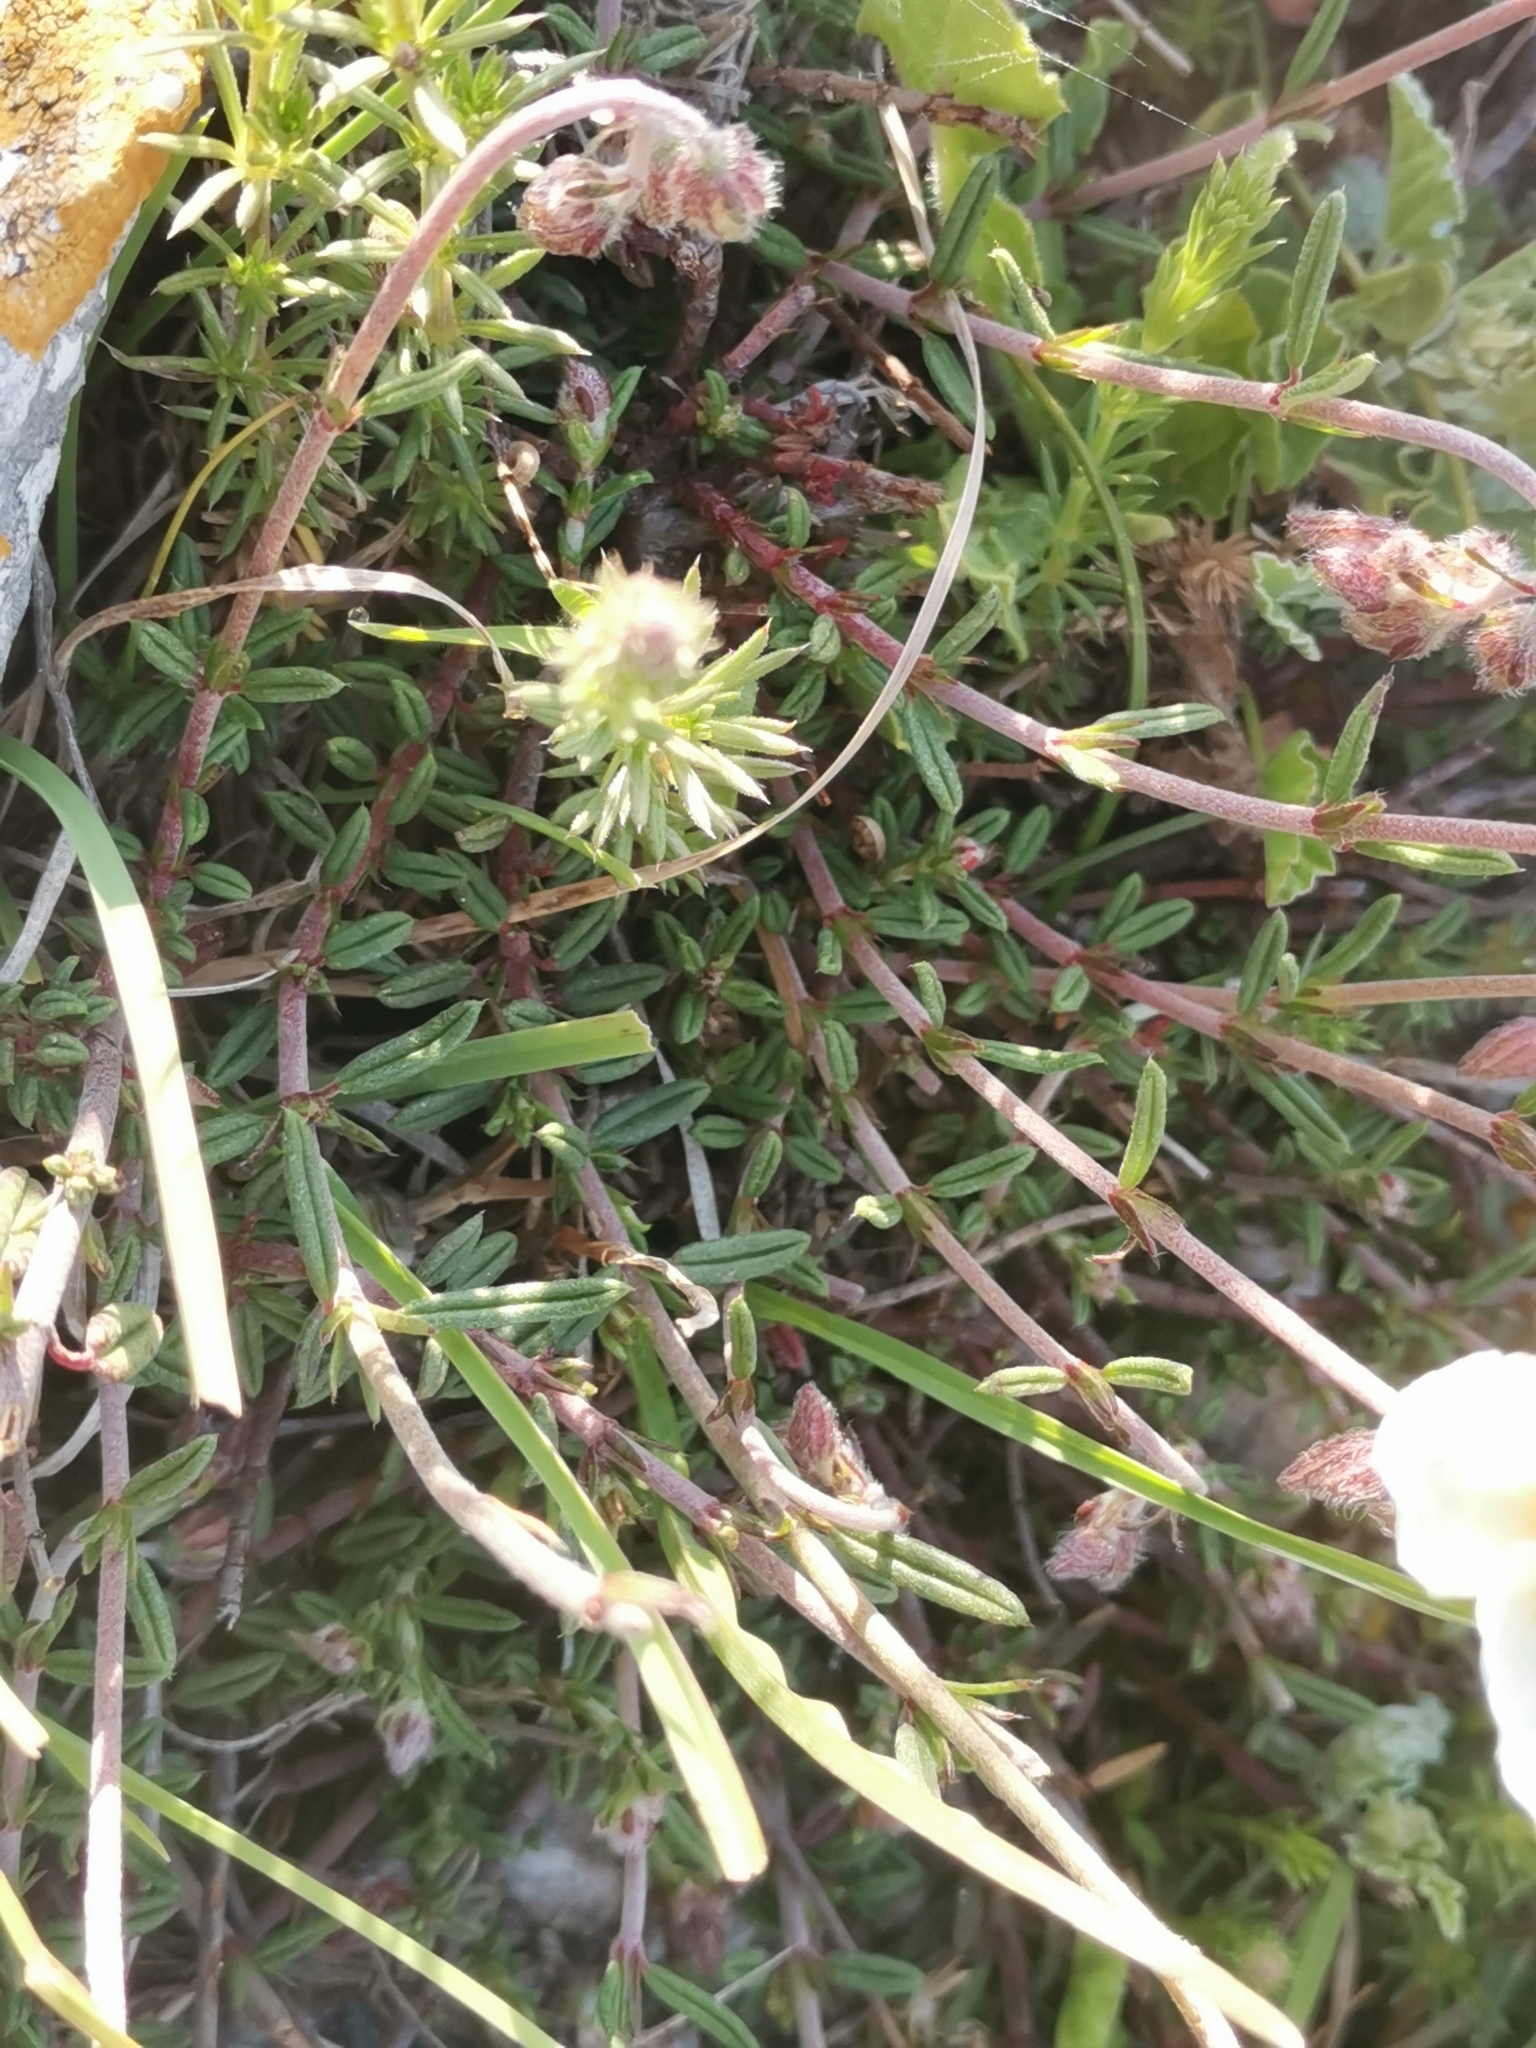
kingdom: Plantae
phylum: Tracheophyta
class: Magnoliopsida
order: Malvales
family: Cistaceae
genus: Helianthemum
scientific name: Helianthemum apenninum
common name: White rock-rose
